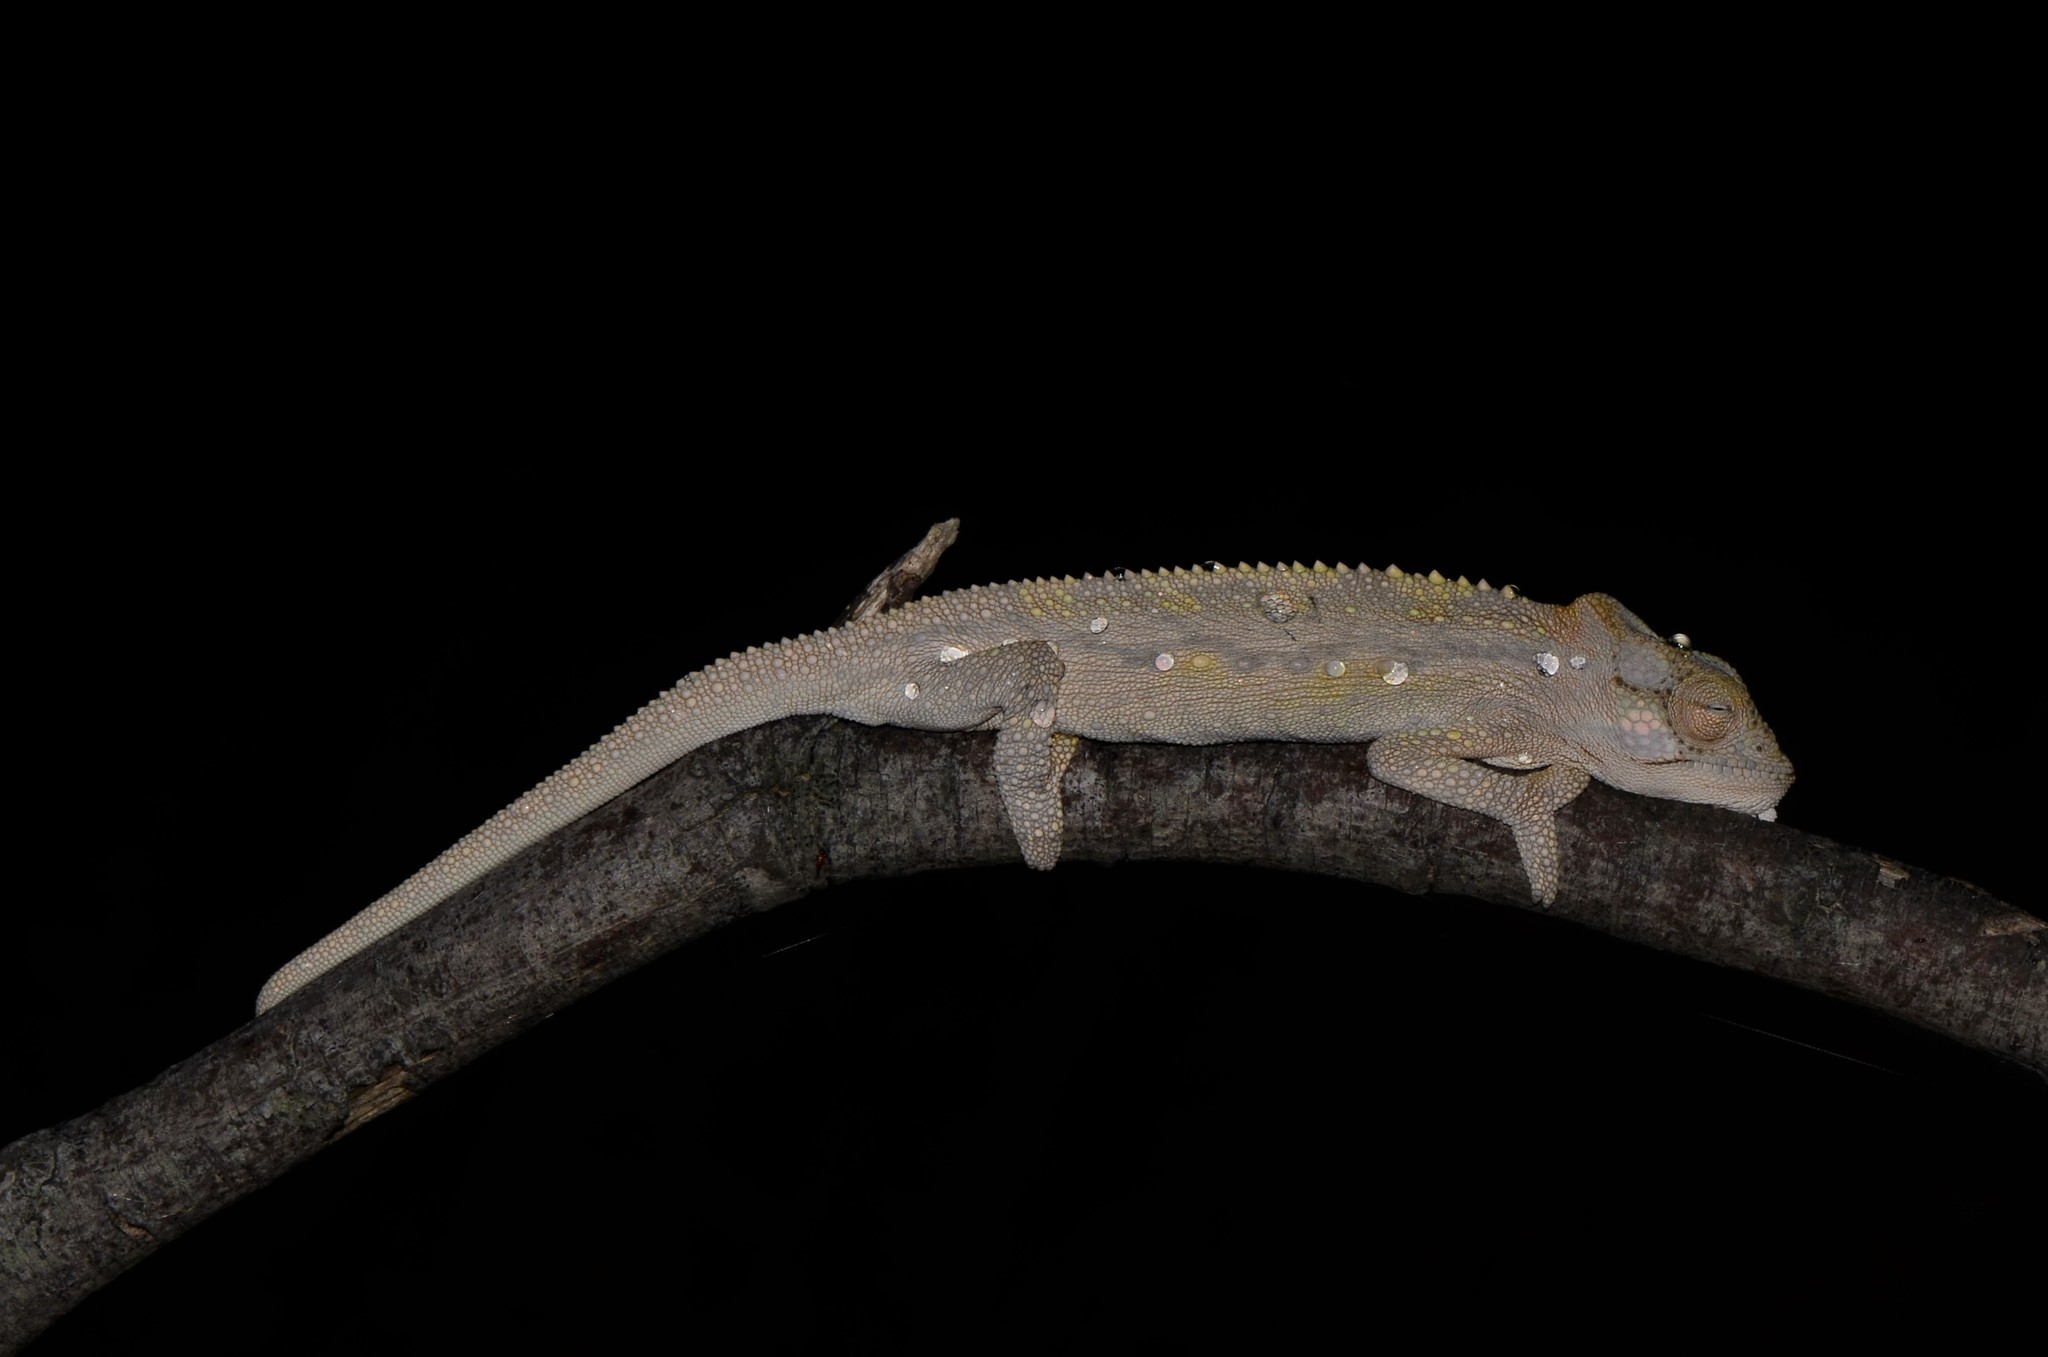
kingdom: Animalia
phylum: Chordata
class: Squamata
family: Chamaeleonidae
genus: Bradypodion
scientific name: Bradypodion pumilum
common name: Cape dwarf chameleon
